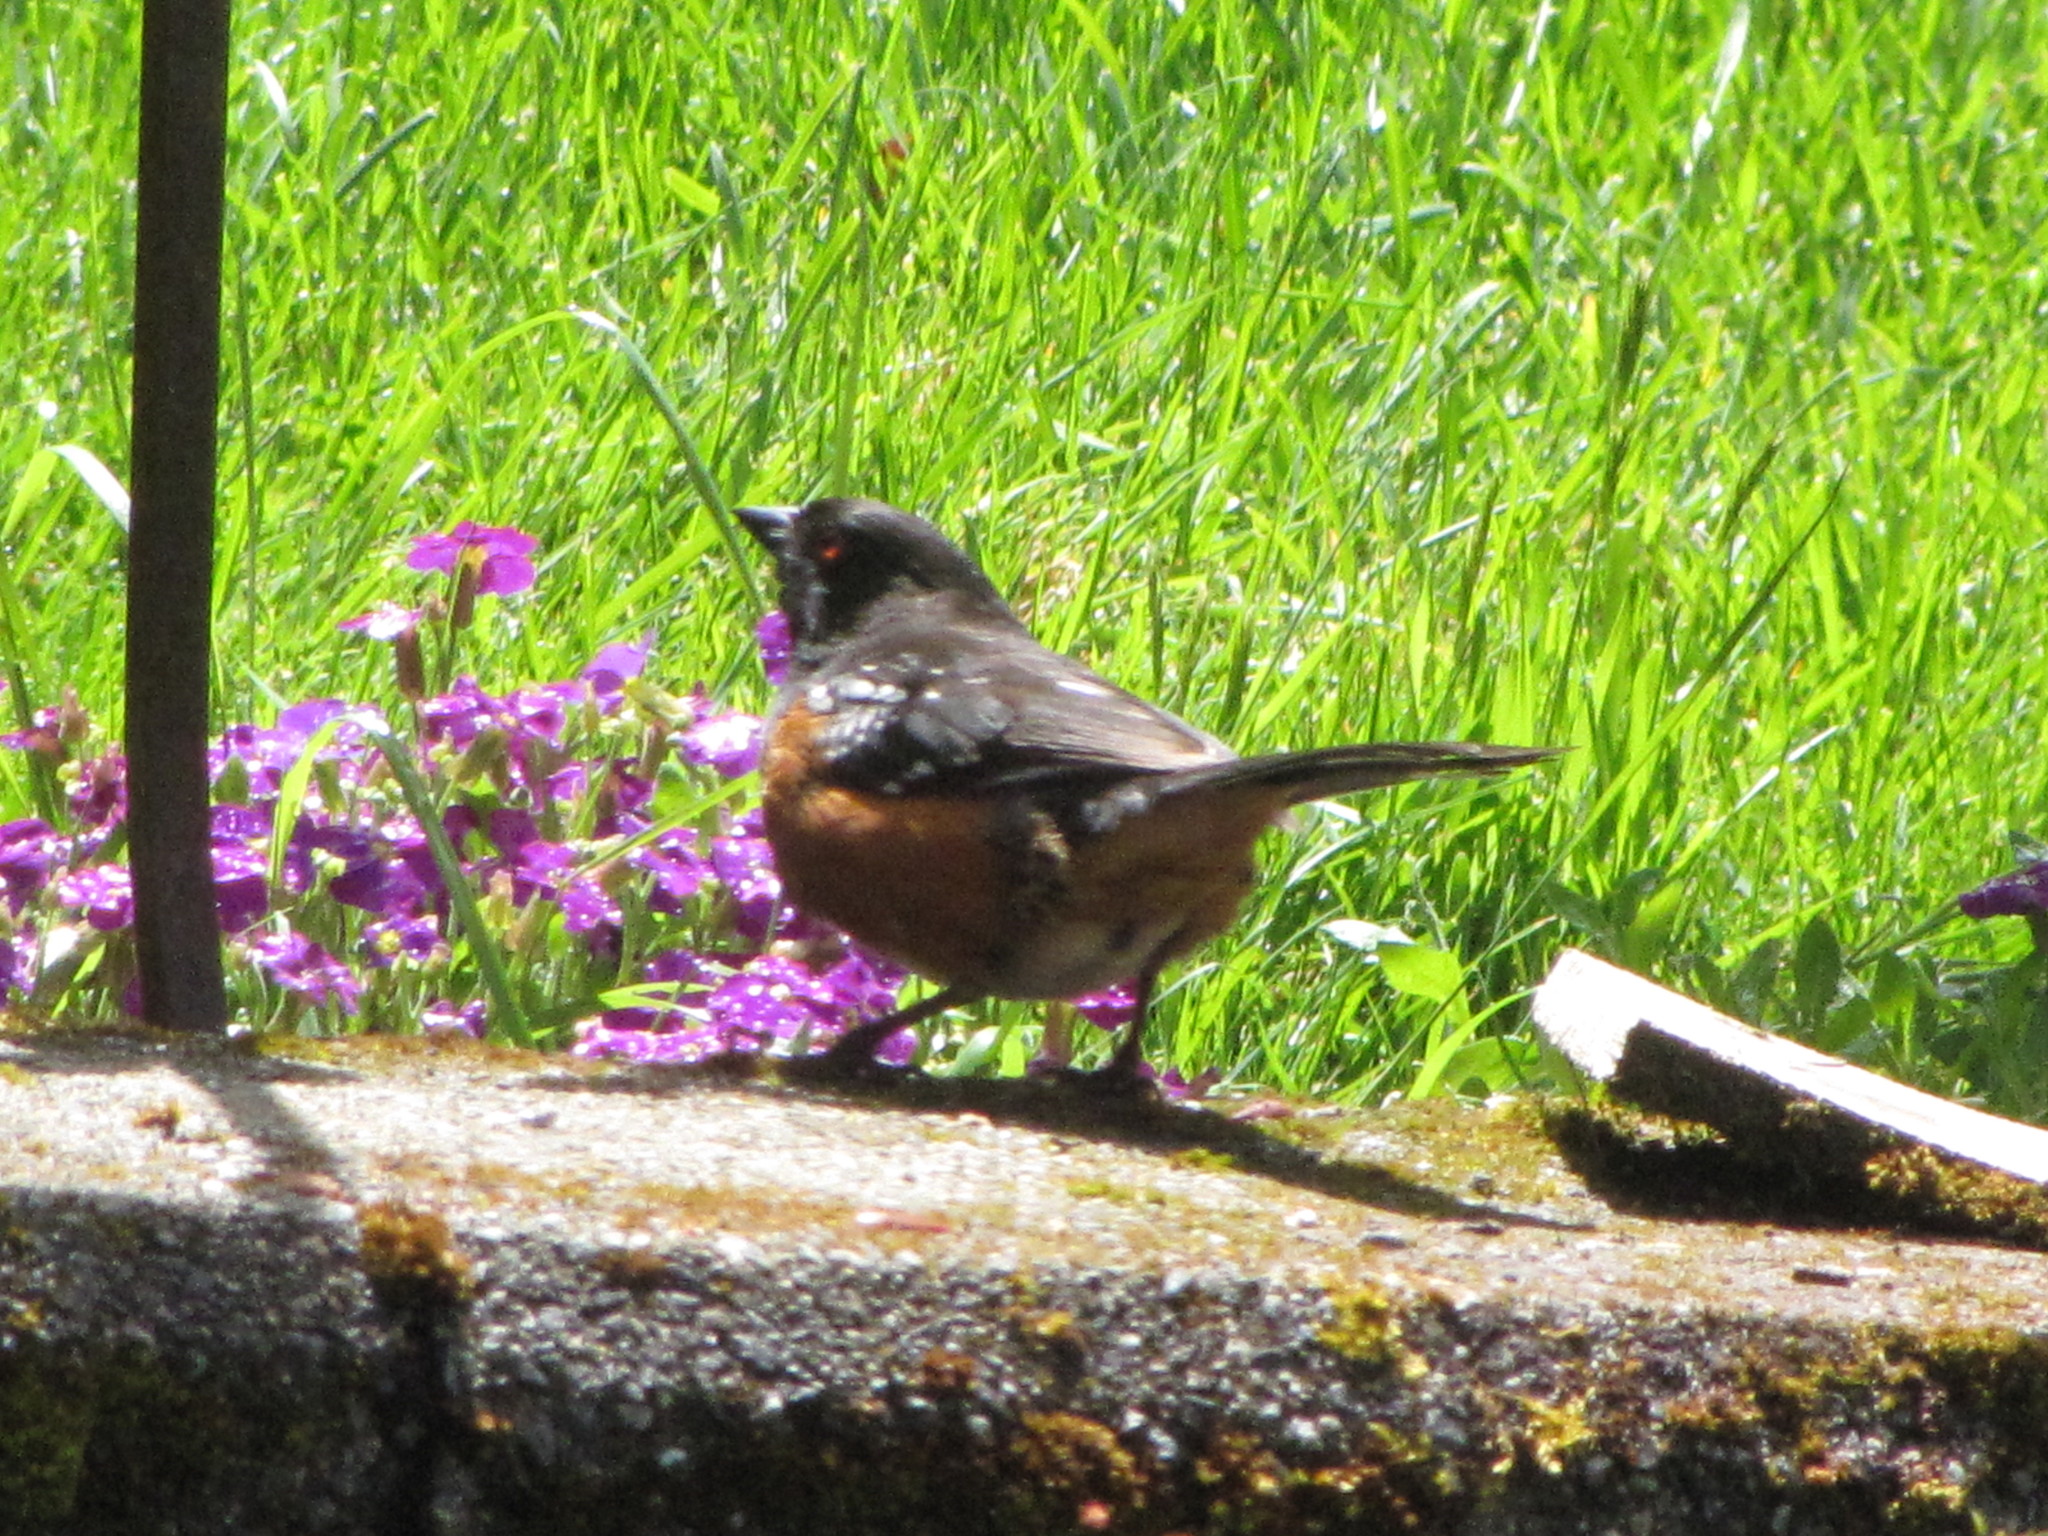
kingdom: Animalia
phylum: Chordata
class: Aves
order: Passeriformes
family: Passerellidae
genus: Pipilo
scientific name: Pipilo maculatus
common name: Spotted towhee
